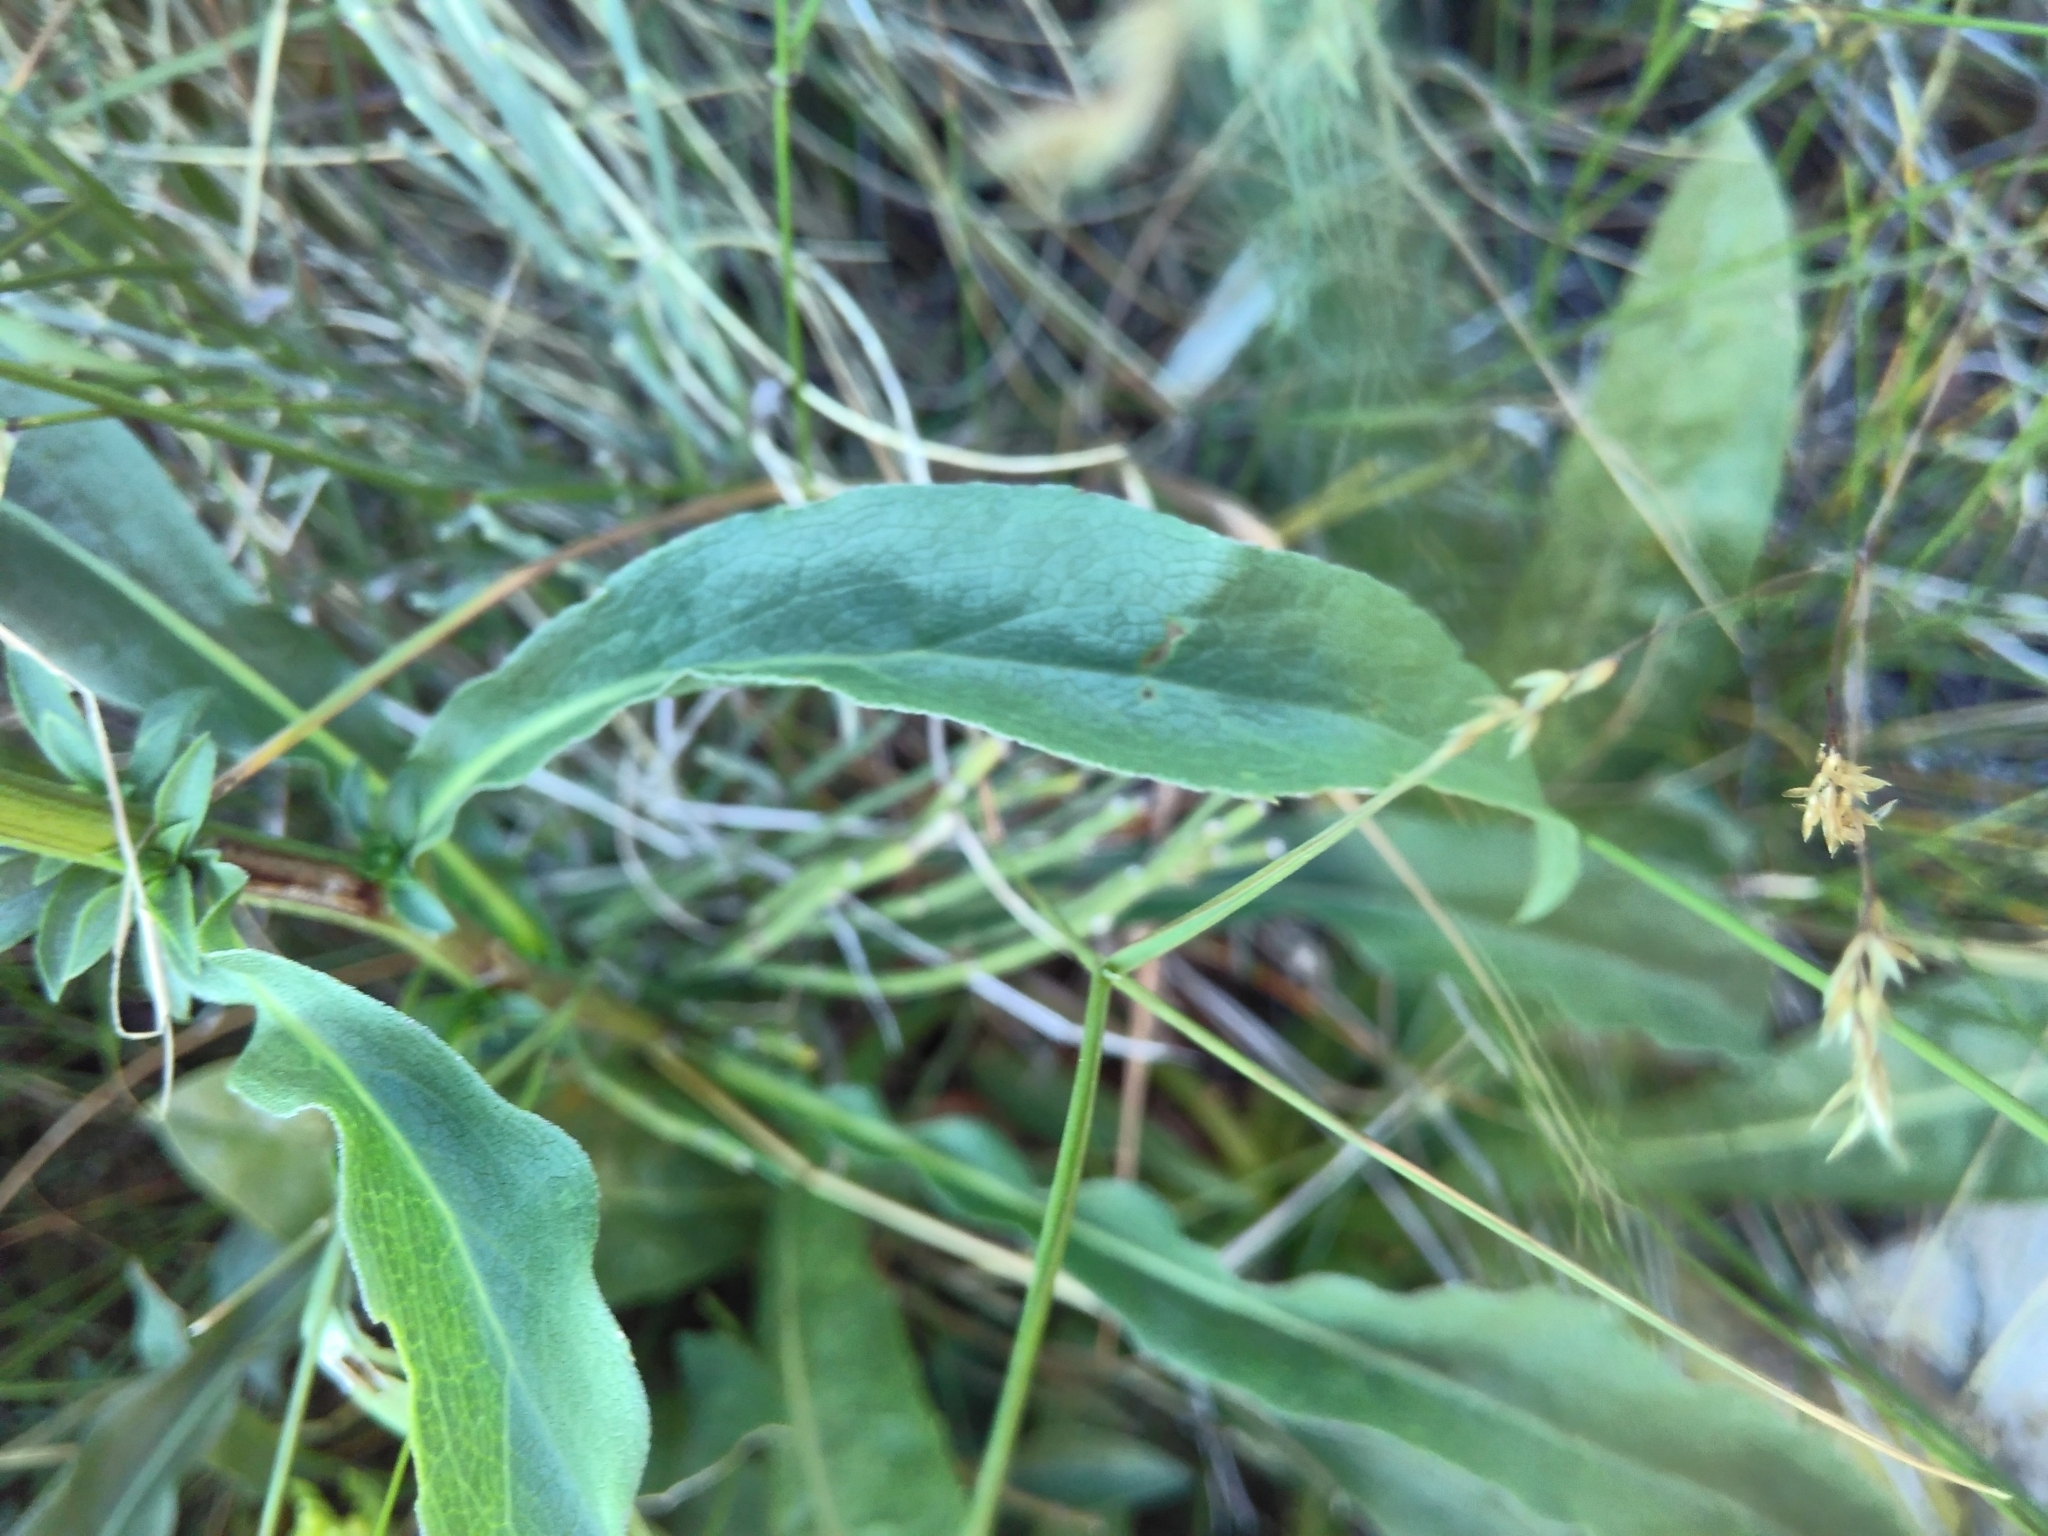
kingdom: Plantae
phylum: Tracheophyta
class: Magnoliopsida
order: Asterales
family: Asteraceae
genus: Solidago
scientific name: Solidago virgaurea
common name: Goldenrod
